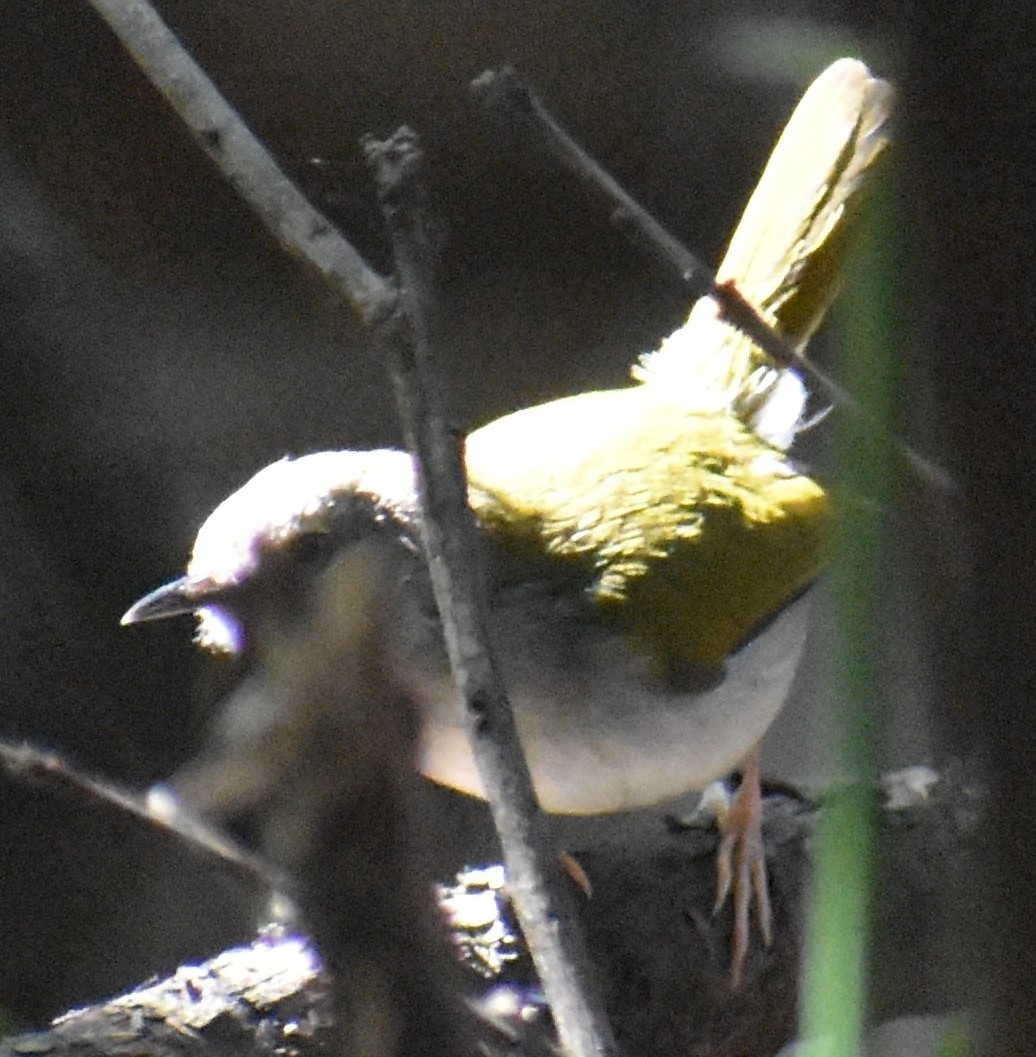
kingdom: Animalia
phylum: Chordata
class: Aves
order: Passeriformes
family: Cisticolidae
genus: Camaroptera
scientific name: Camaroptera brachyura
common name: Green-backed camaroptera
